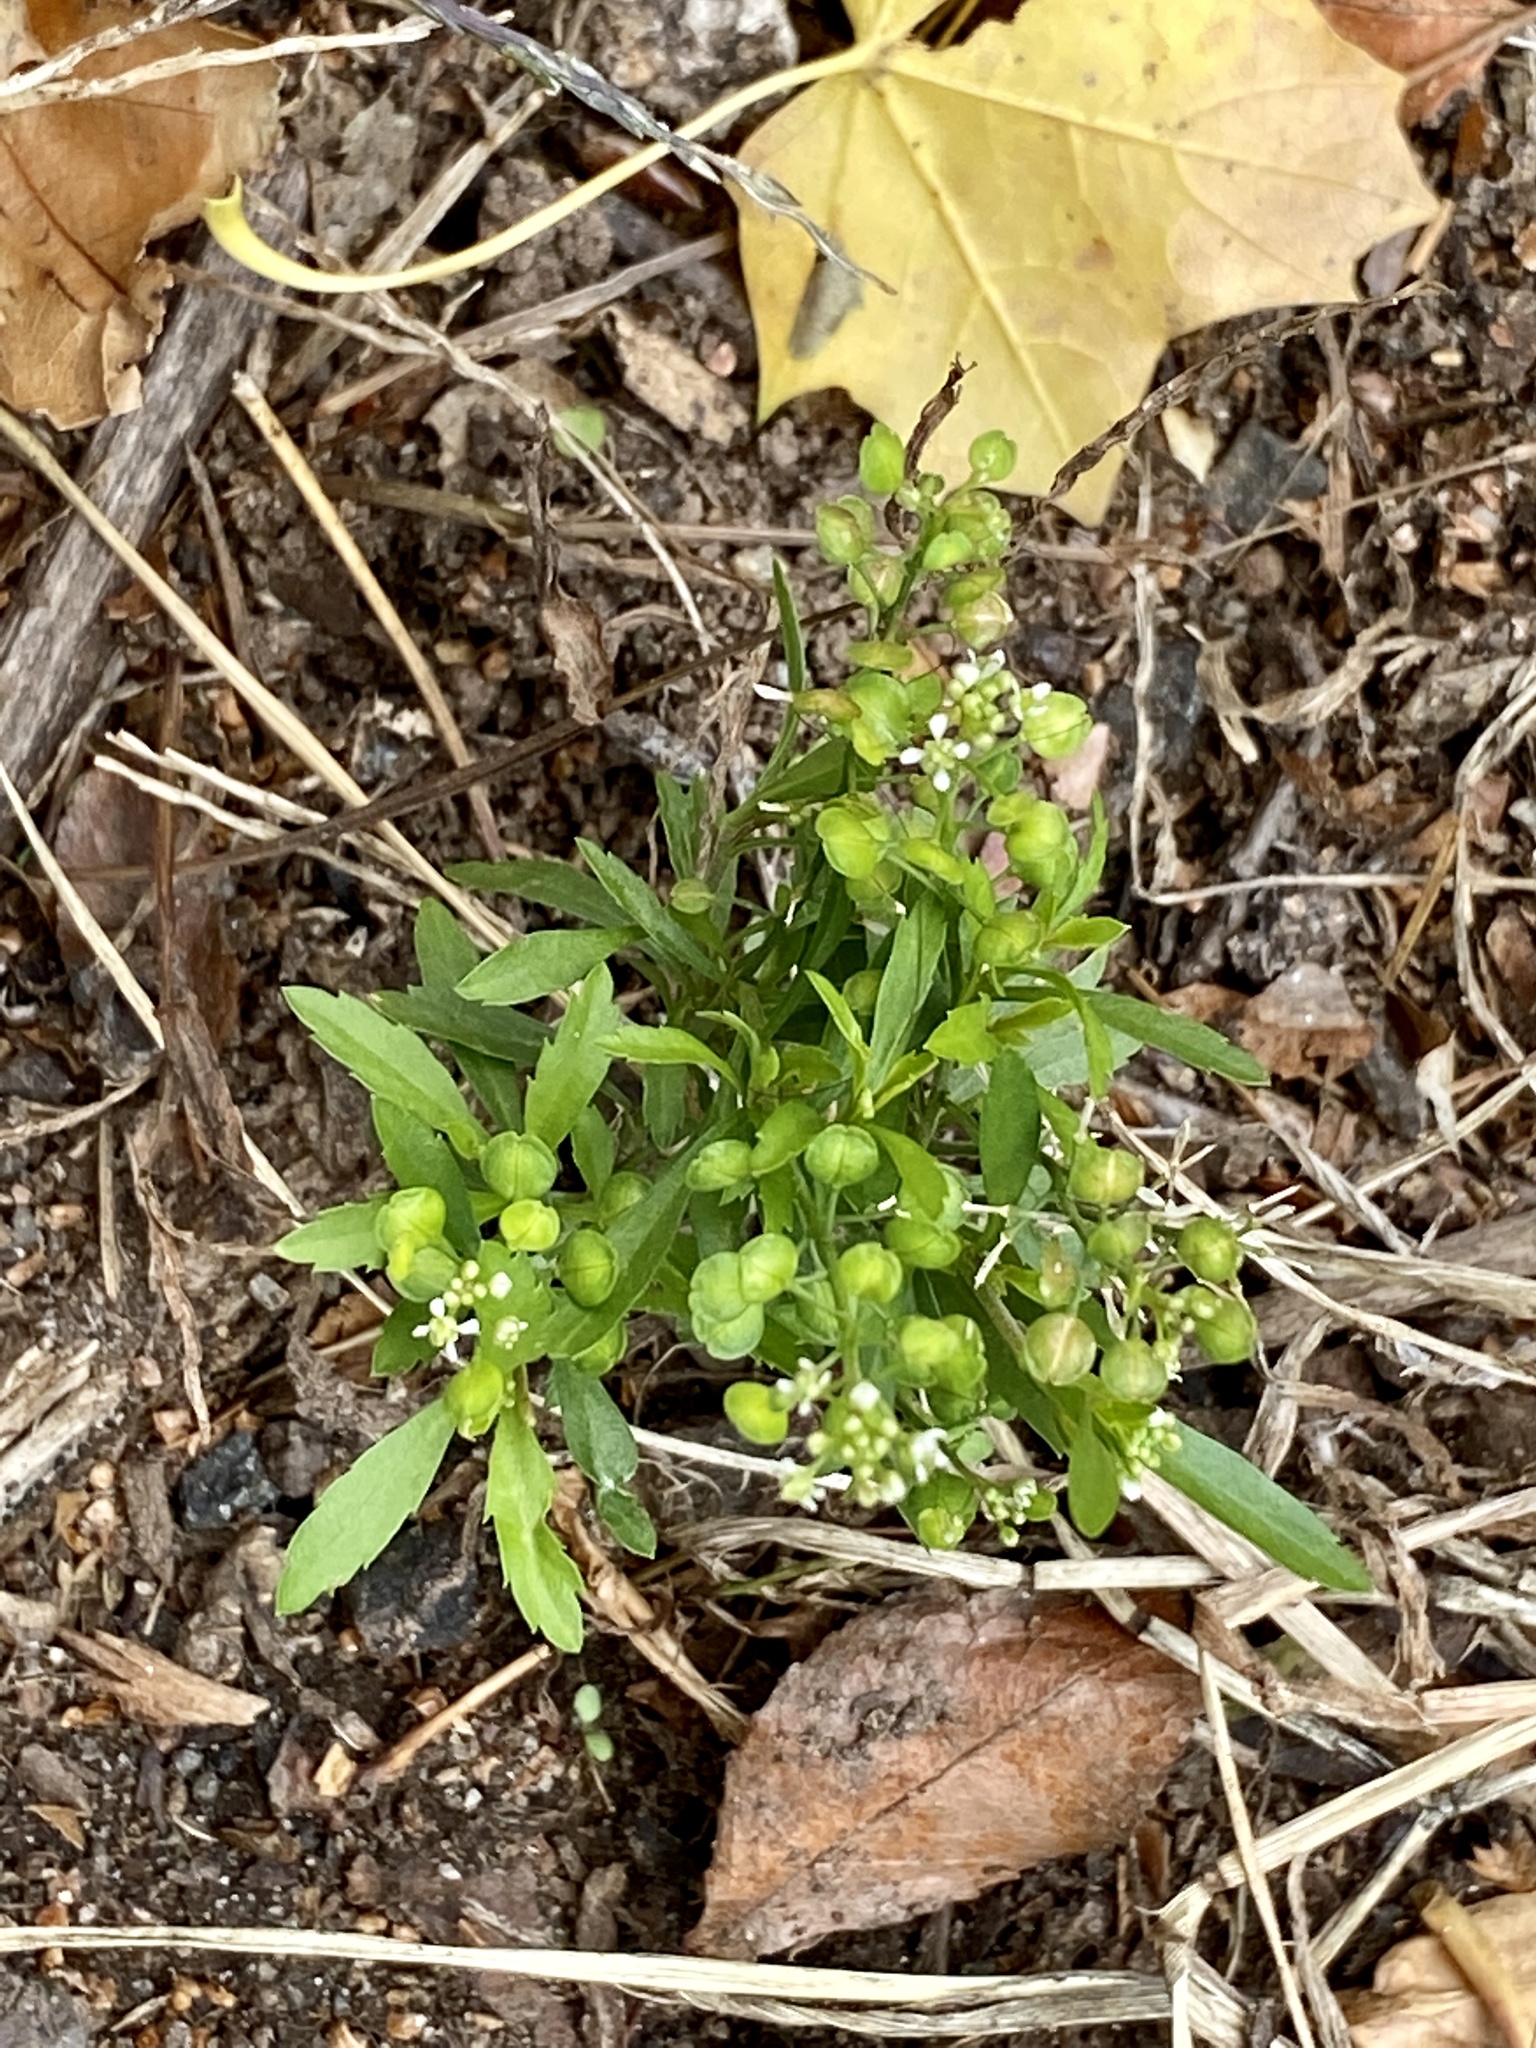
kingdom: Plantae
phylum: Tracheophyta
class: Magnoliopsida
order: Brassicales
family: Brassicaceae
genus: Lepidium
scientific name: Lepidium virginicum
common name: Least pepperwort
